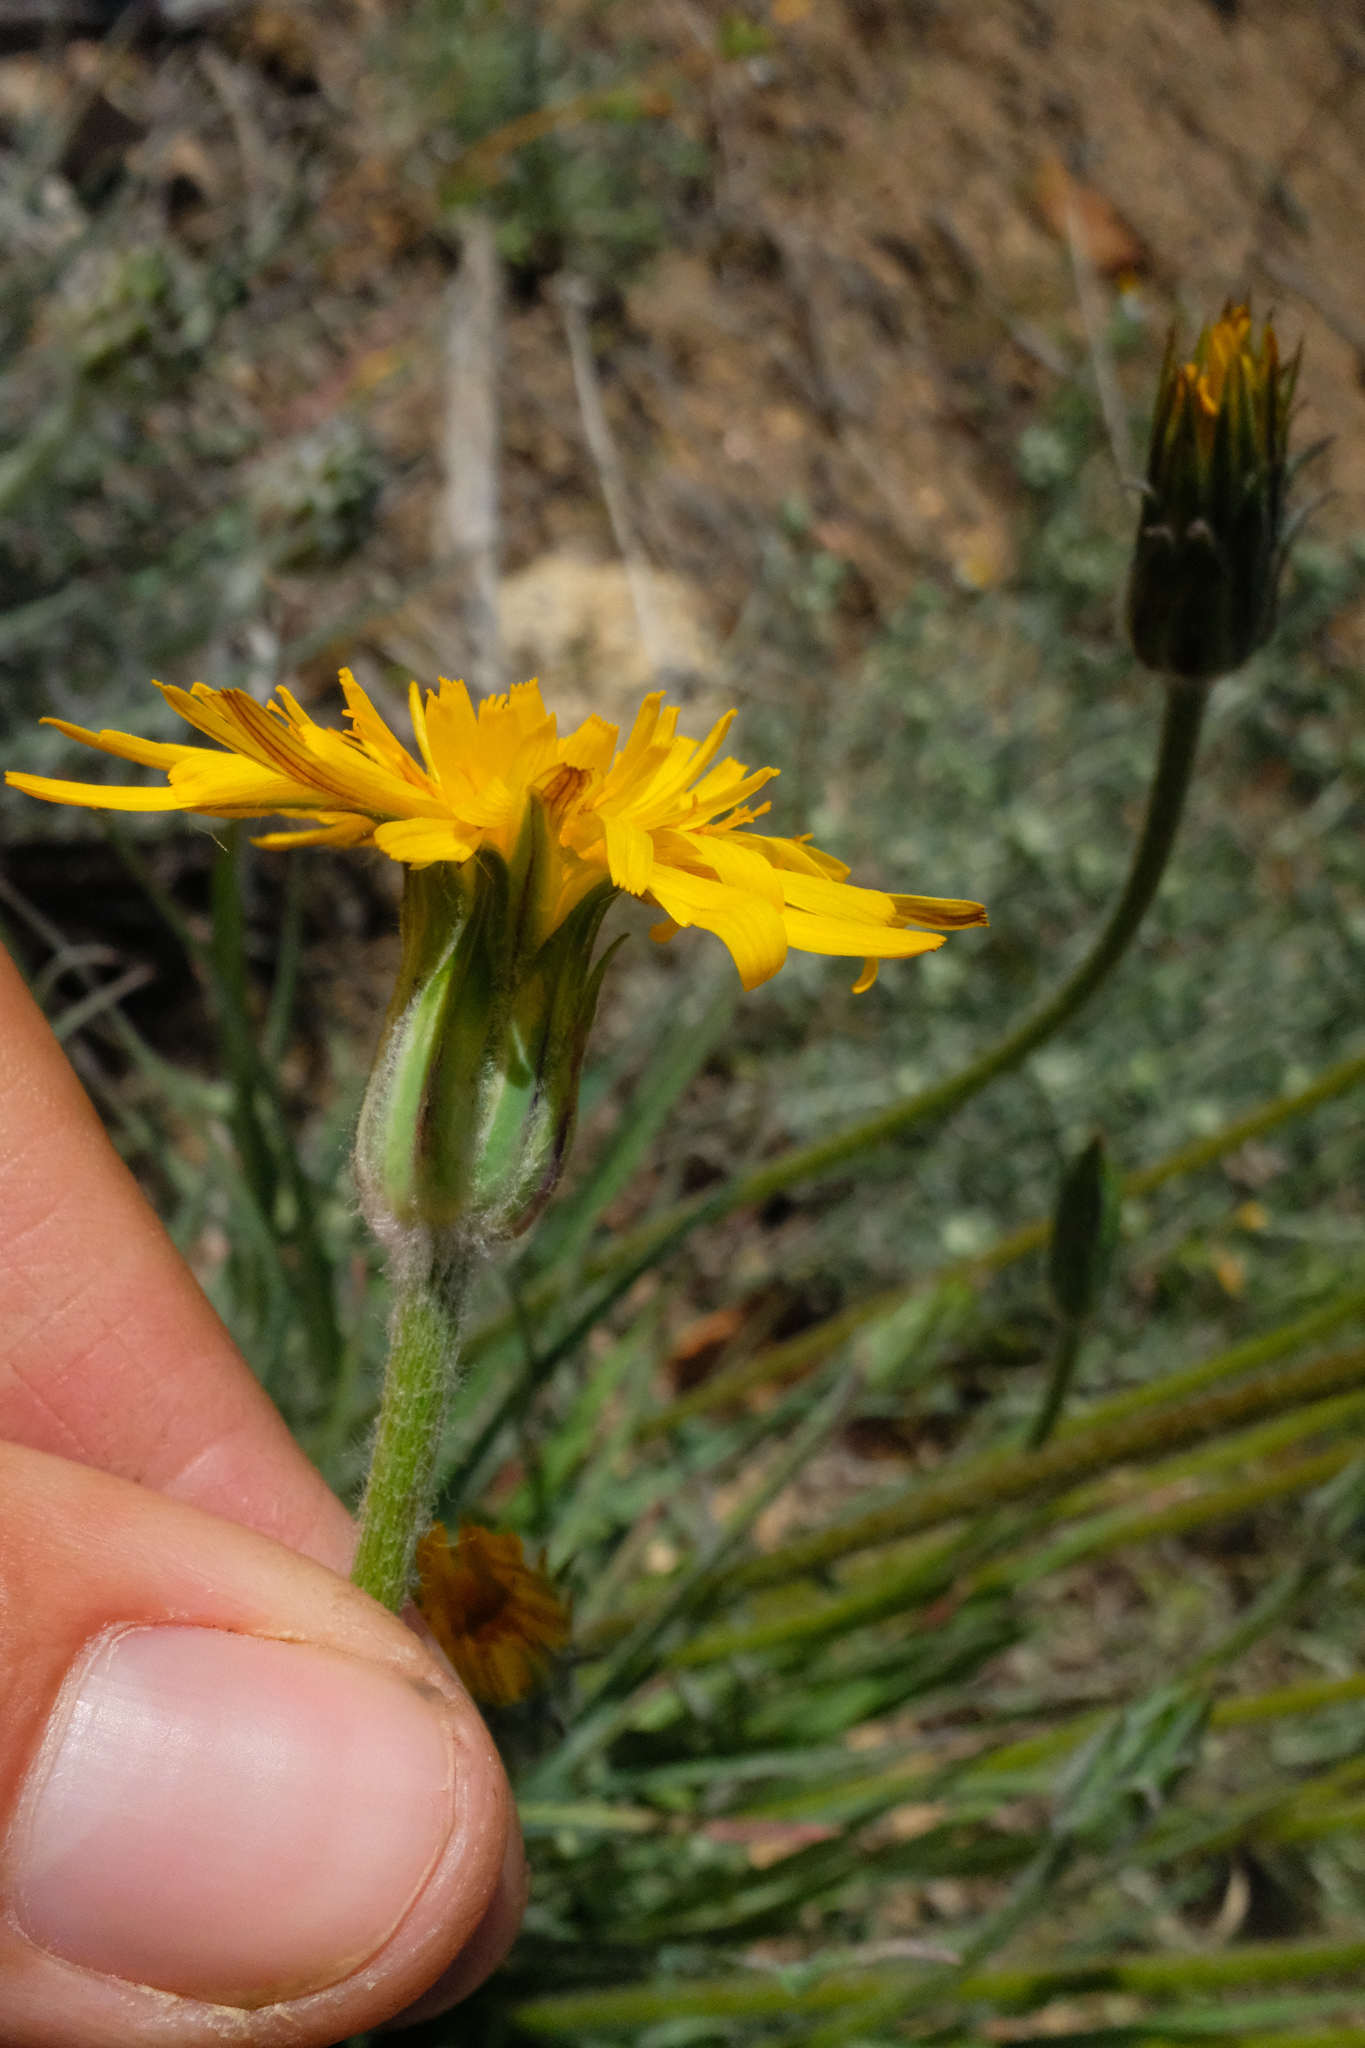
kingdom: Plantae
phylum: Tracheophyta
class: Magnoliopsida
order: Asterales
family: Asteraceae
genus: Agoseris
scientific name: Agoseris retrorsa
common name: Spearleaf agoseris
